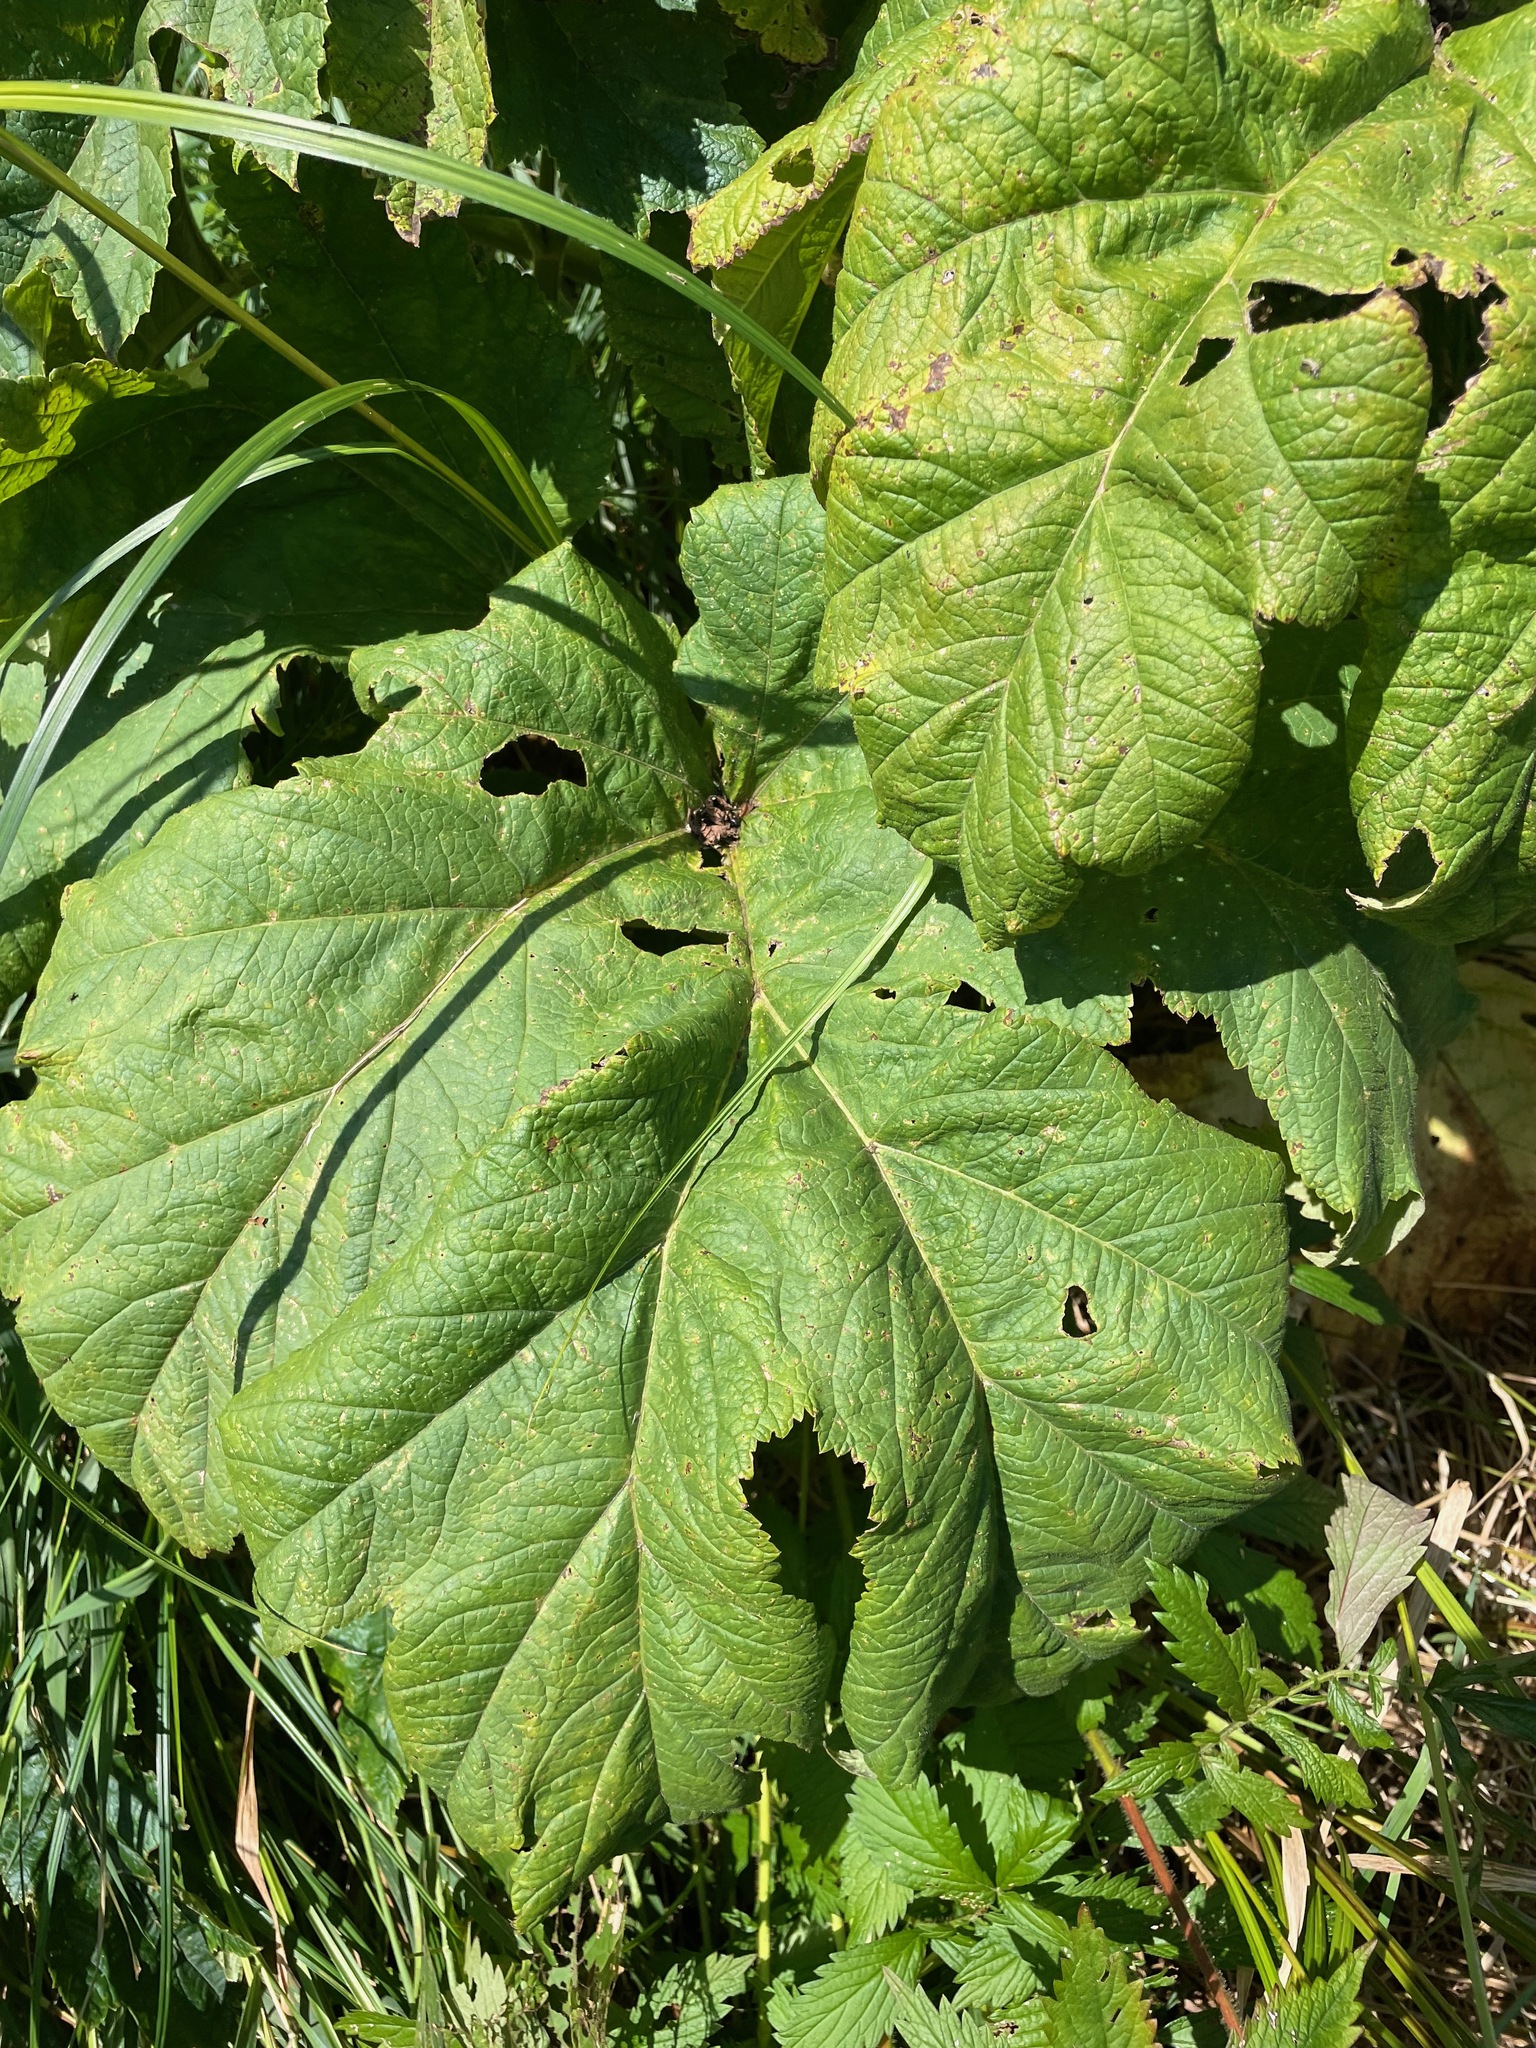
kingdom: Plantae
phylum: Tracheophyta
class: Magnoliopsida
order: Apiales
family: Apiaceae
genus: Heracleum
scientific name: Heracleum maximum
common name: American cow parsnip
